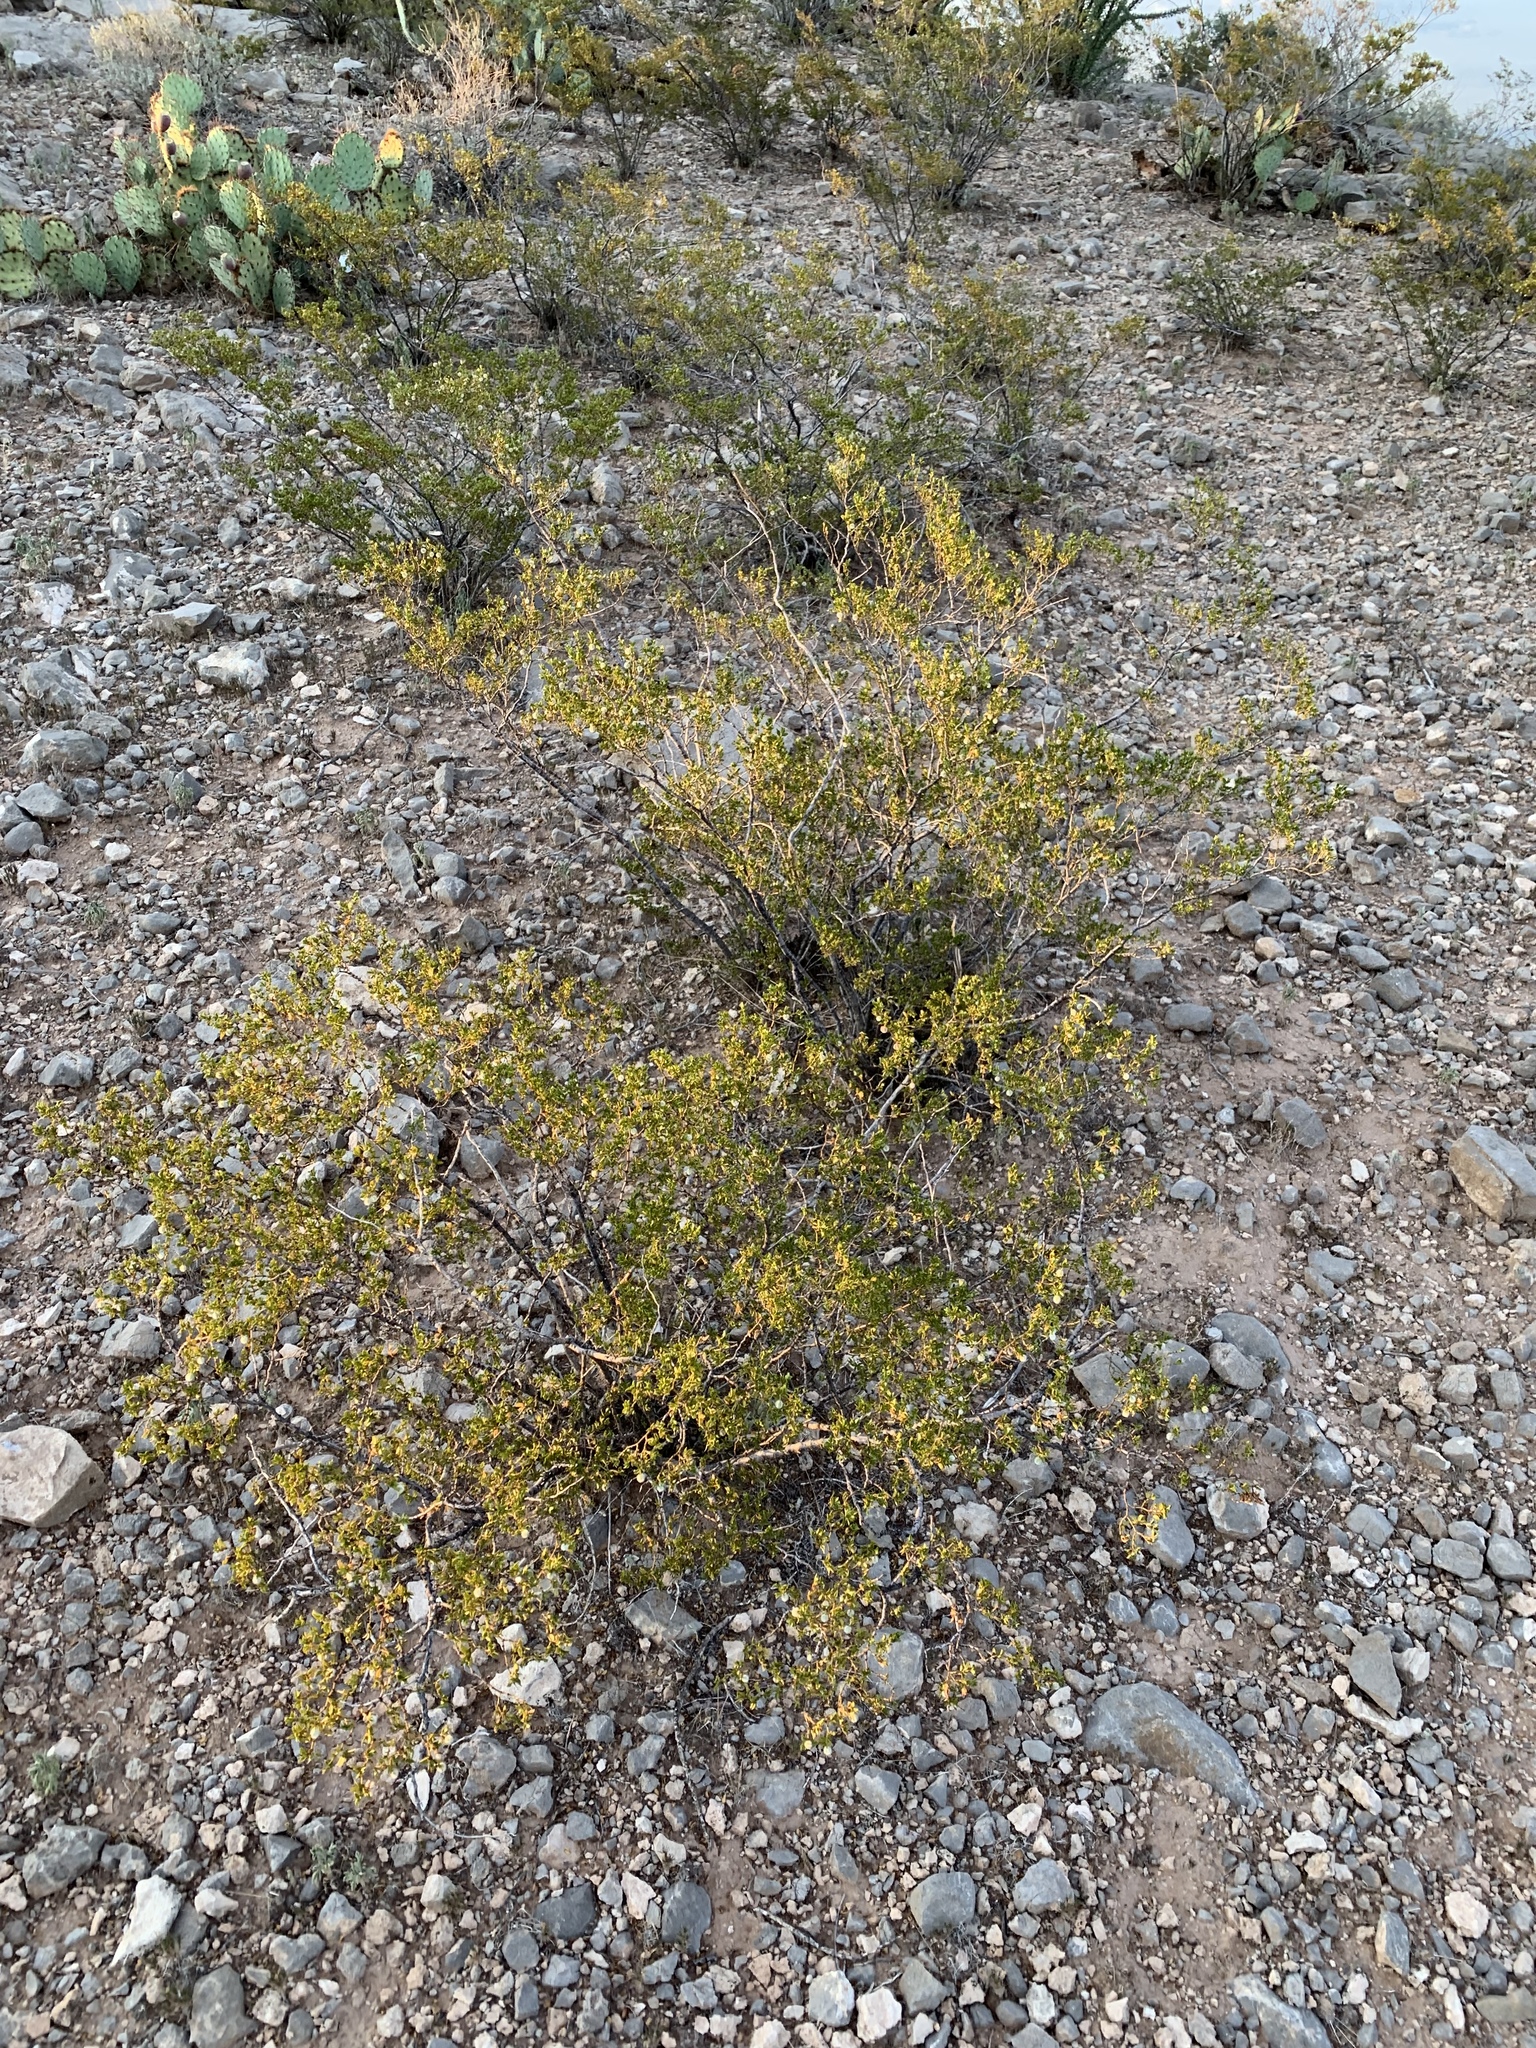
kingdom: Plantae
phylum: Tracheophyta
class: Magnoliopsida
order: Zygophyllales
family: Zygophyllaceae
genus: Larrea
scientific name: Larrea tridentata
